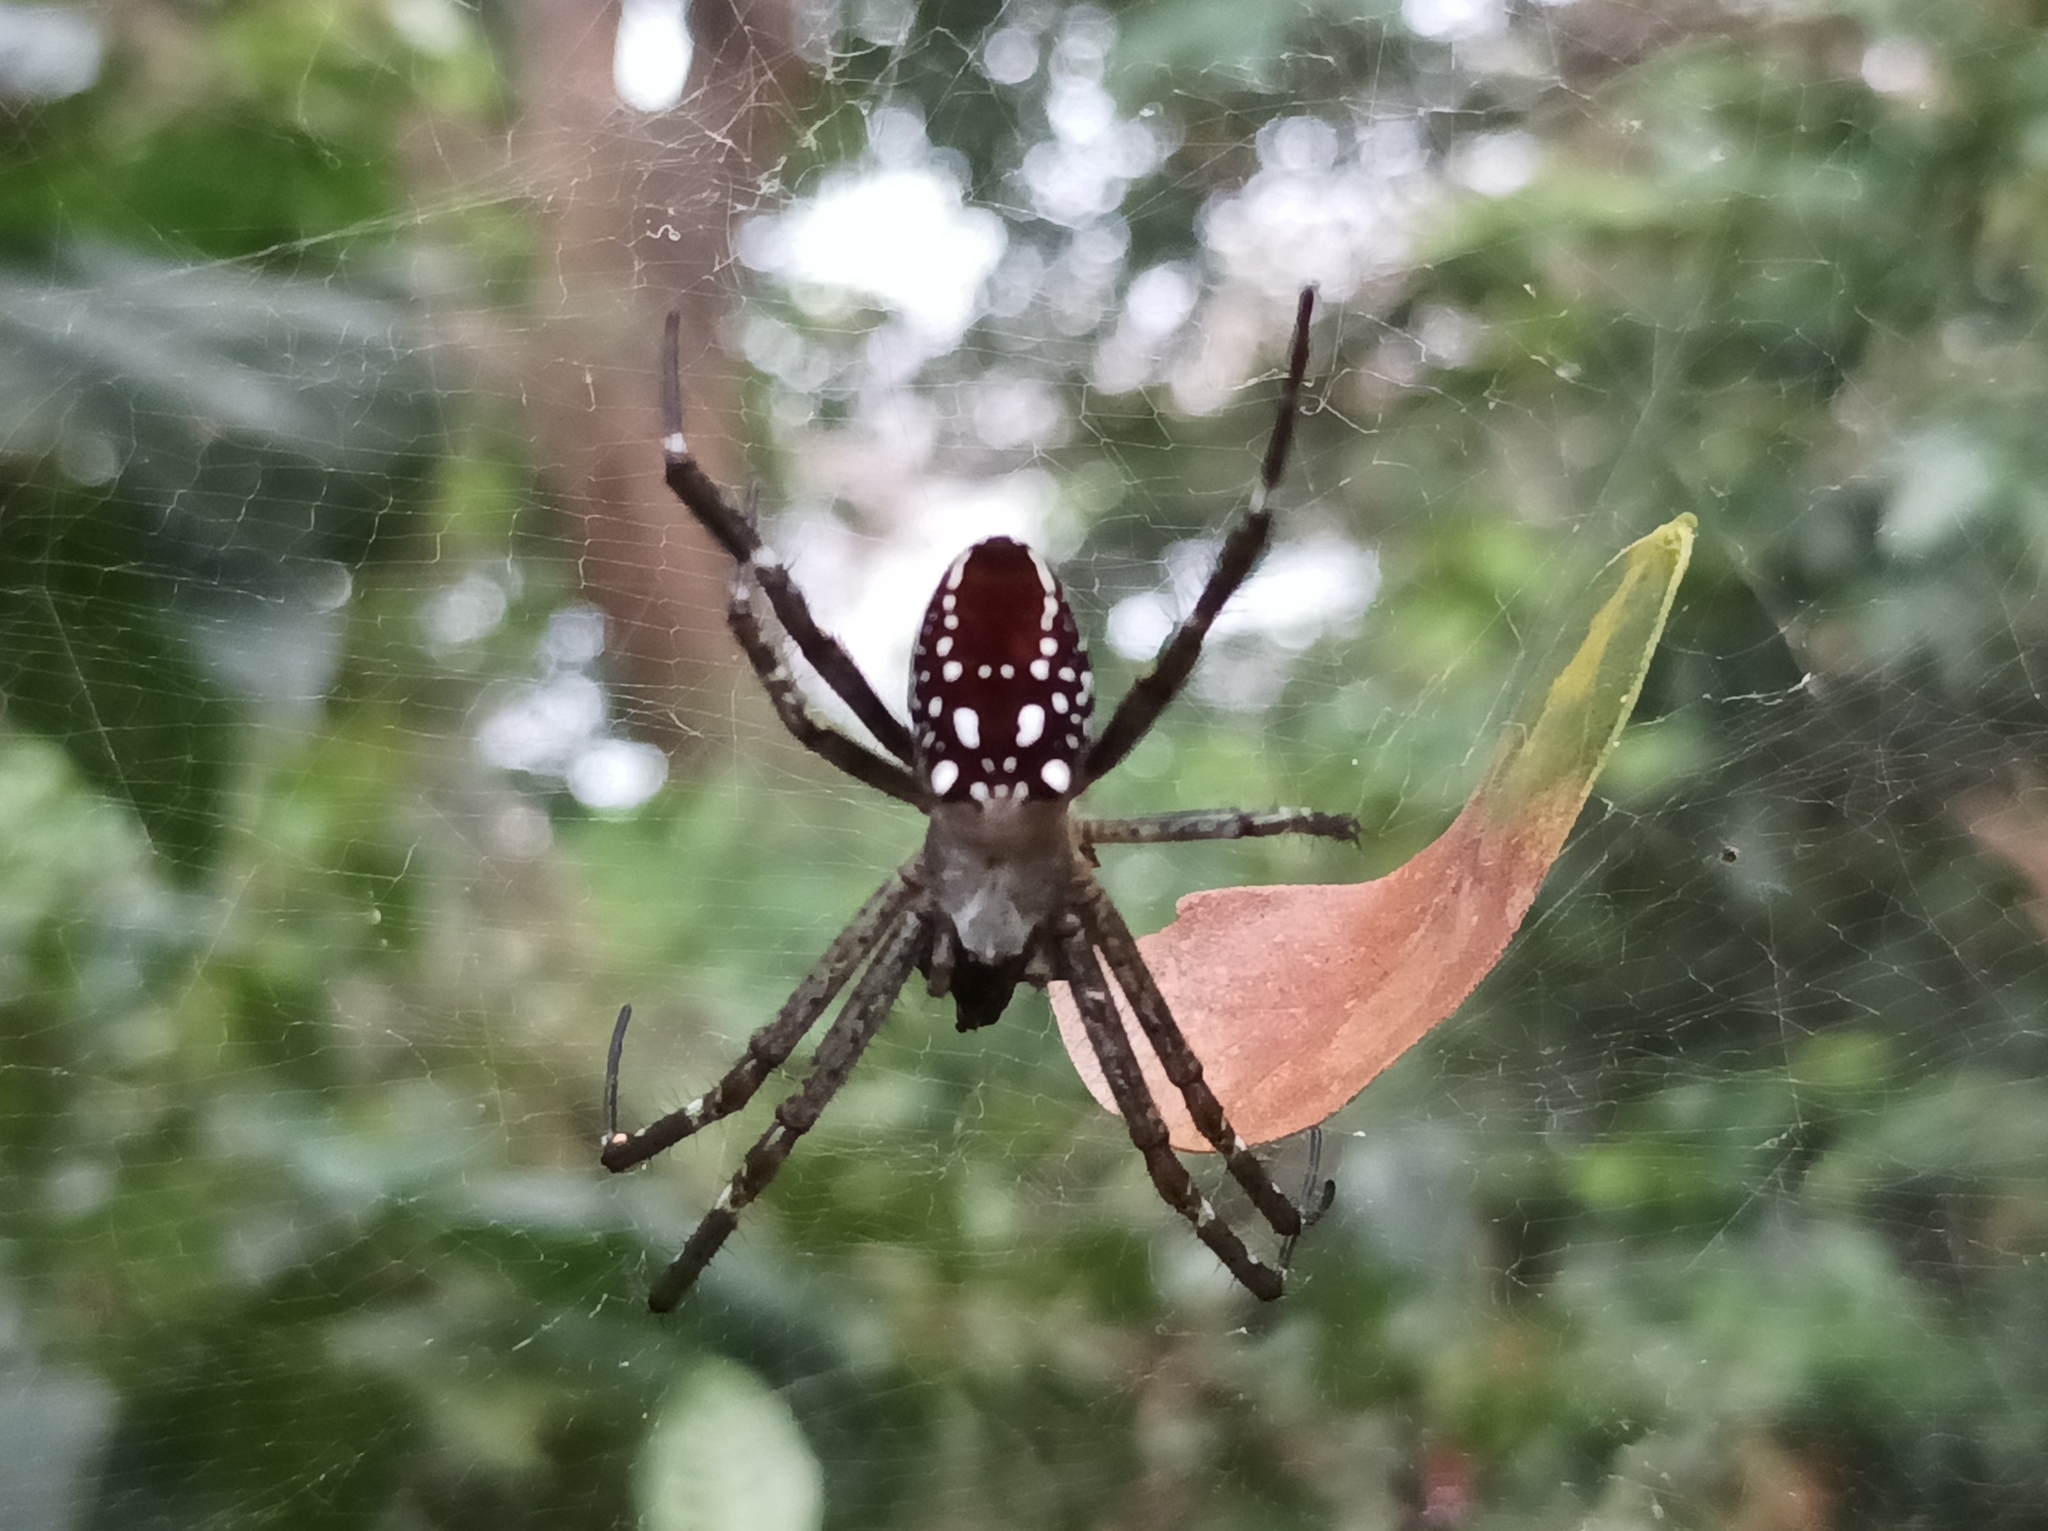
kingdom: Chromista
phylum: Ochrophyta
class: Dictyochophyceae
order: Pedinellales
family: Cyrtophoraceae
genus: Cyrtophora
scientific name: Cyrtophora moluccensis
